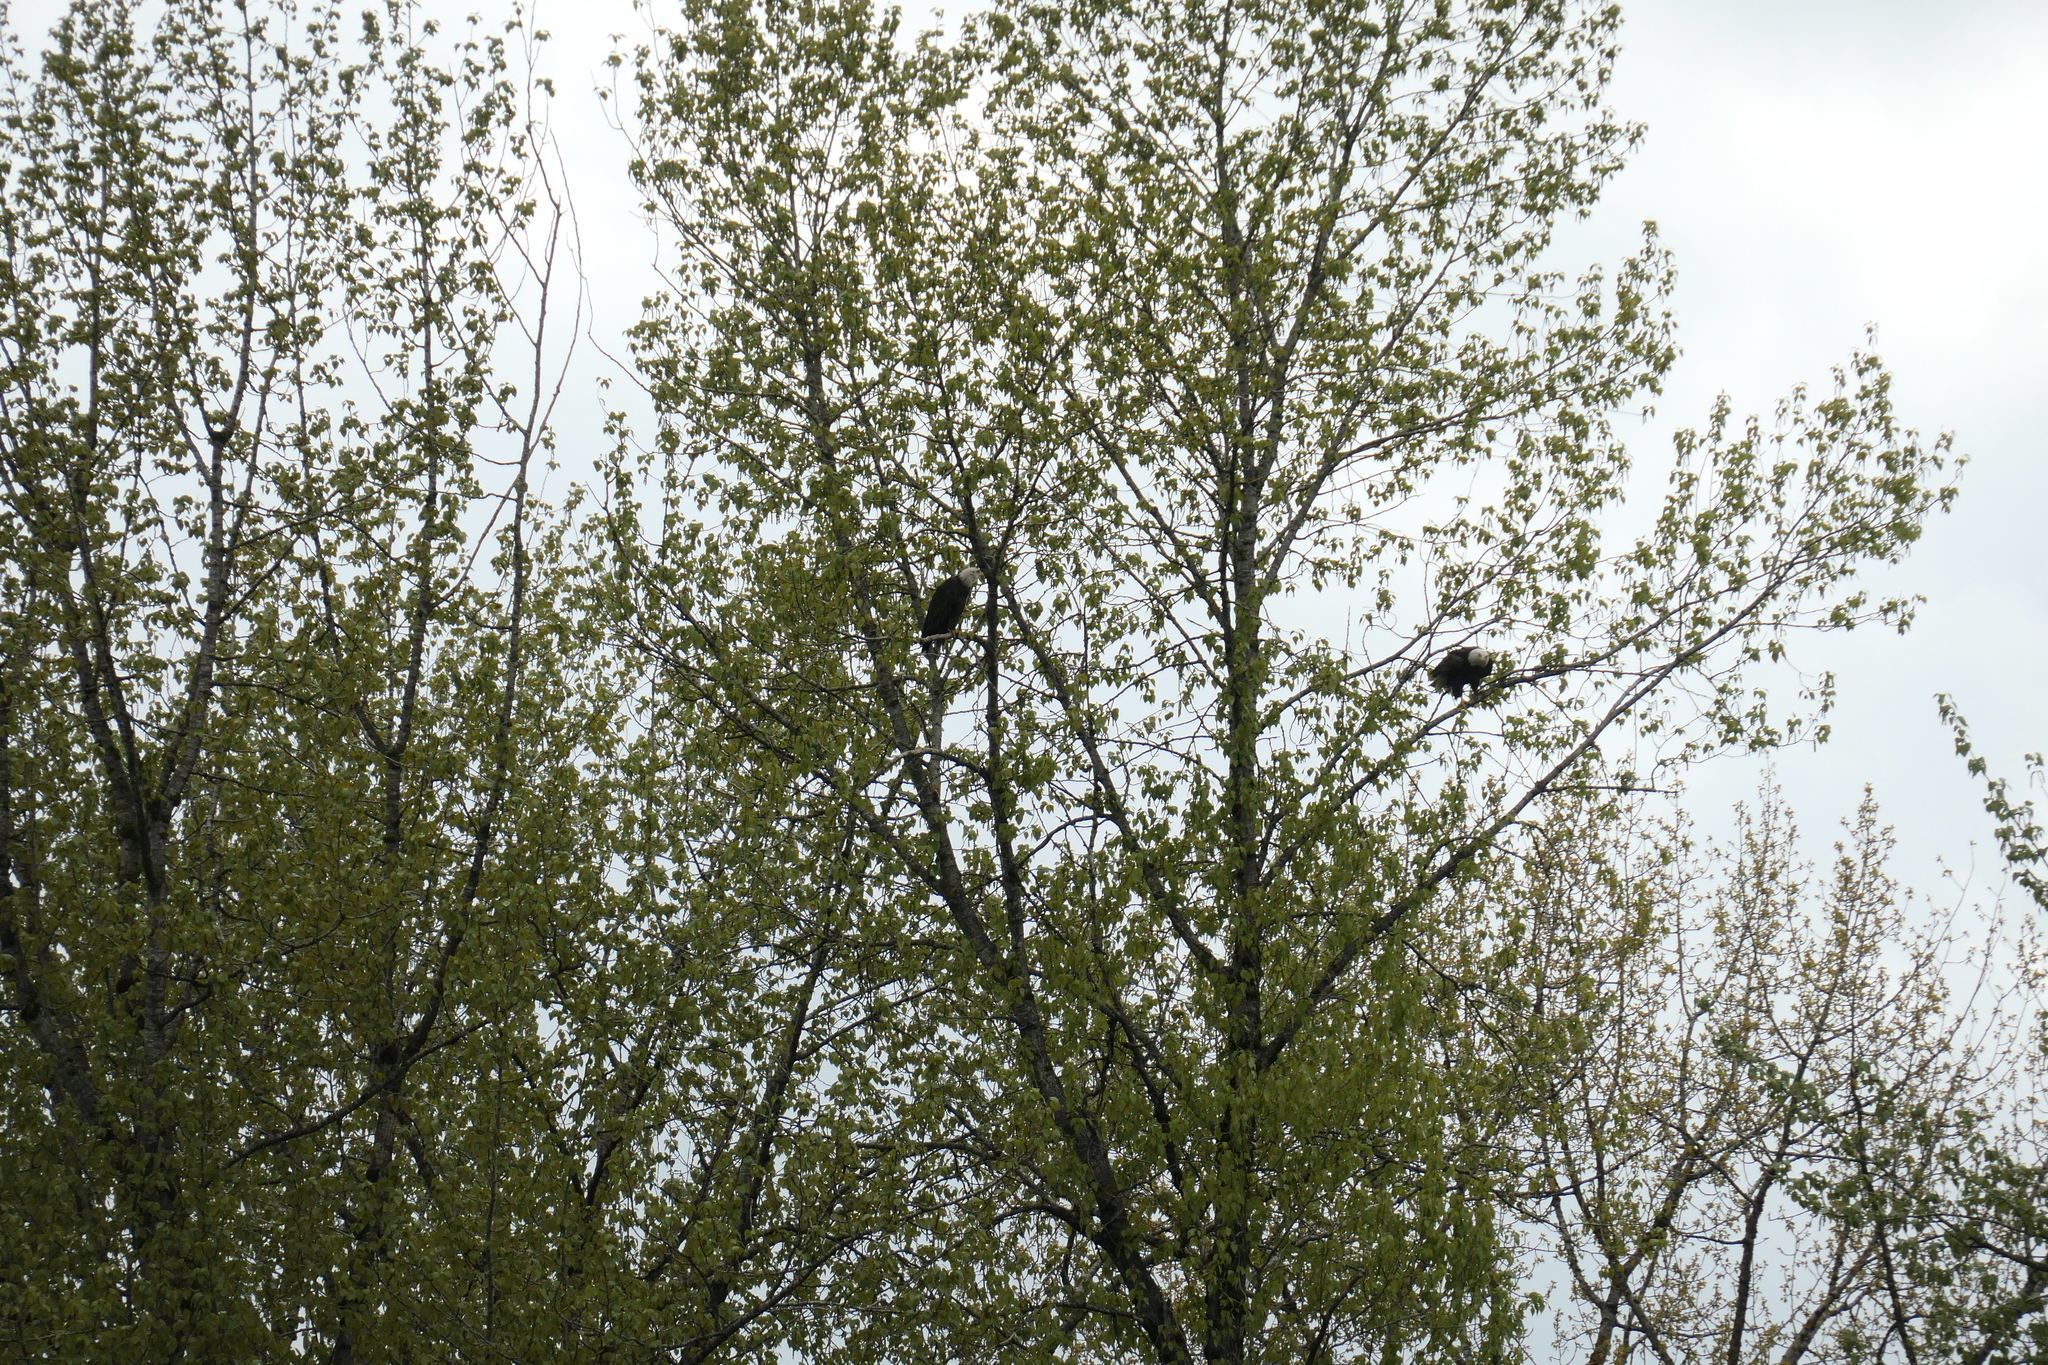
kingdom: Animalia
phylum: Chordata
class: Aves
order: Accipitriformes
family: Accipitridae
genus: Haliaeetus
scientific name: Haliaeetus leucocephalus
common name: Bald eagle
